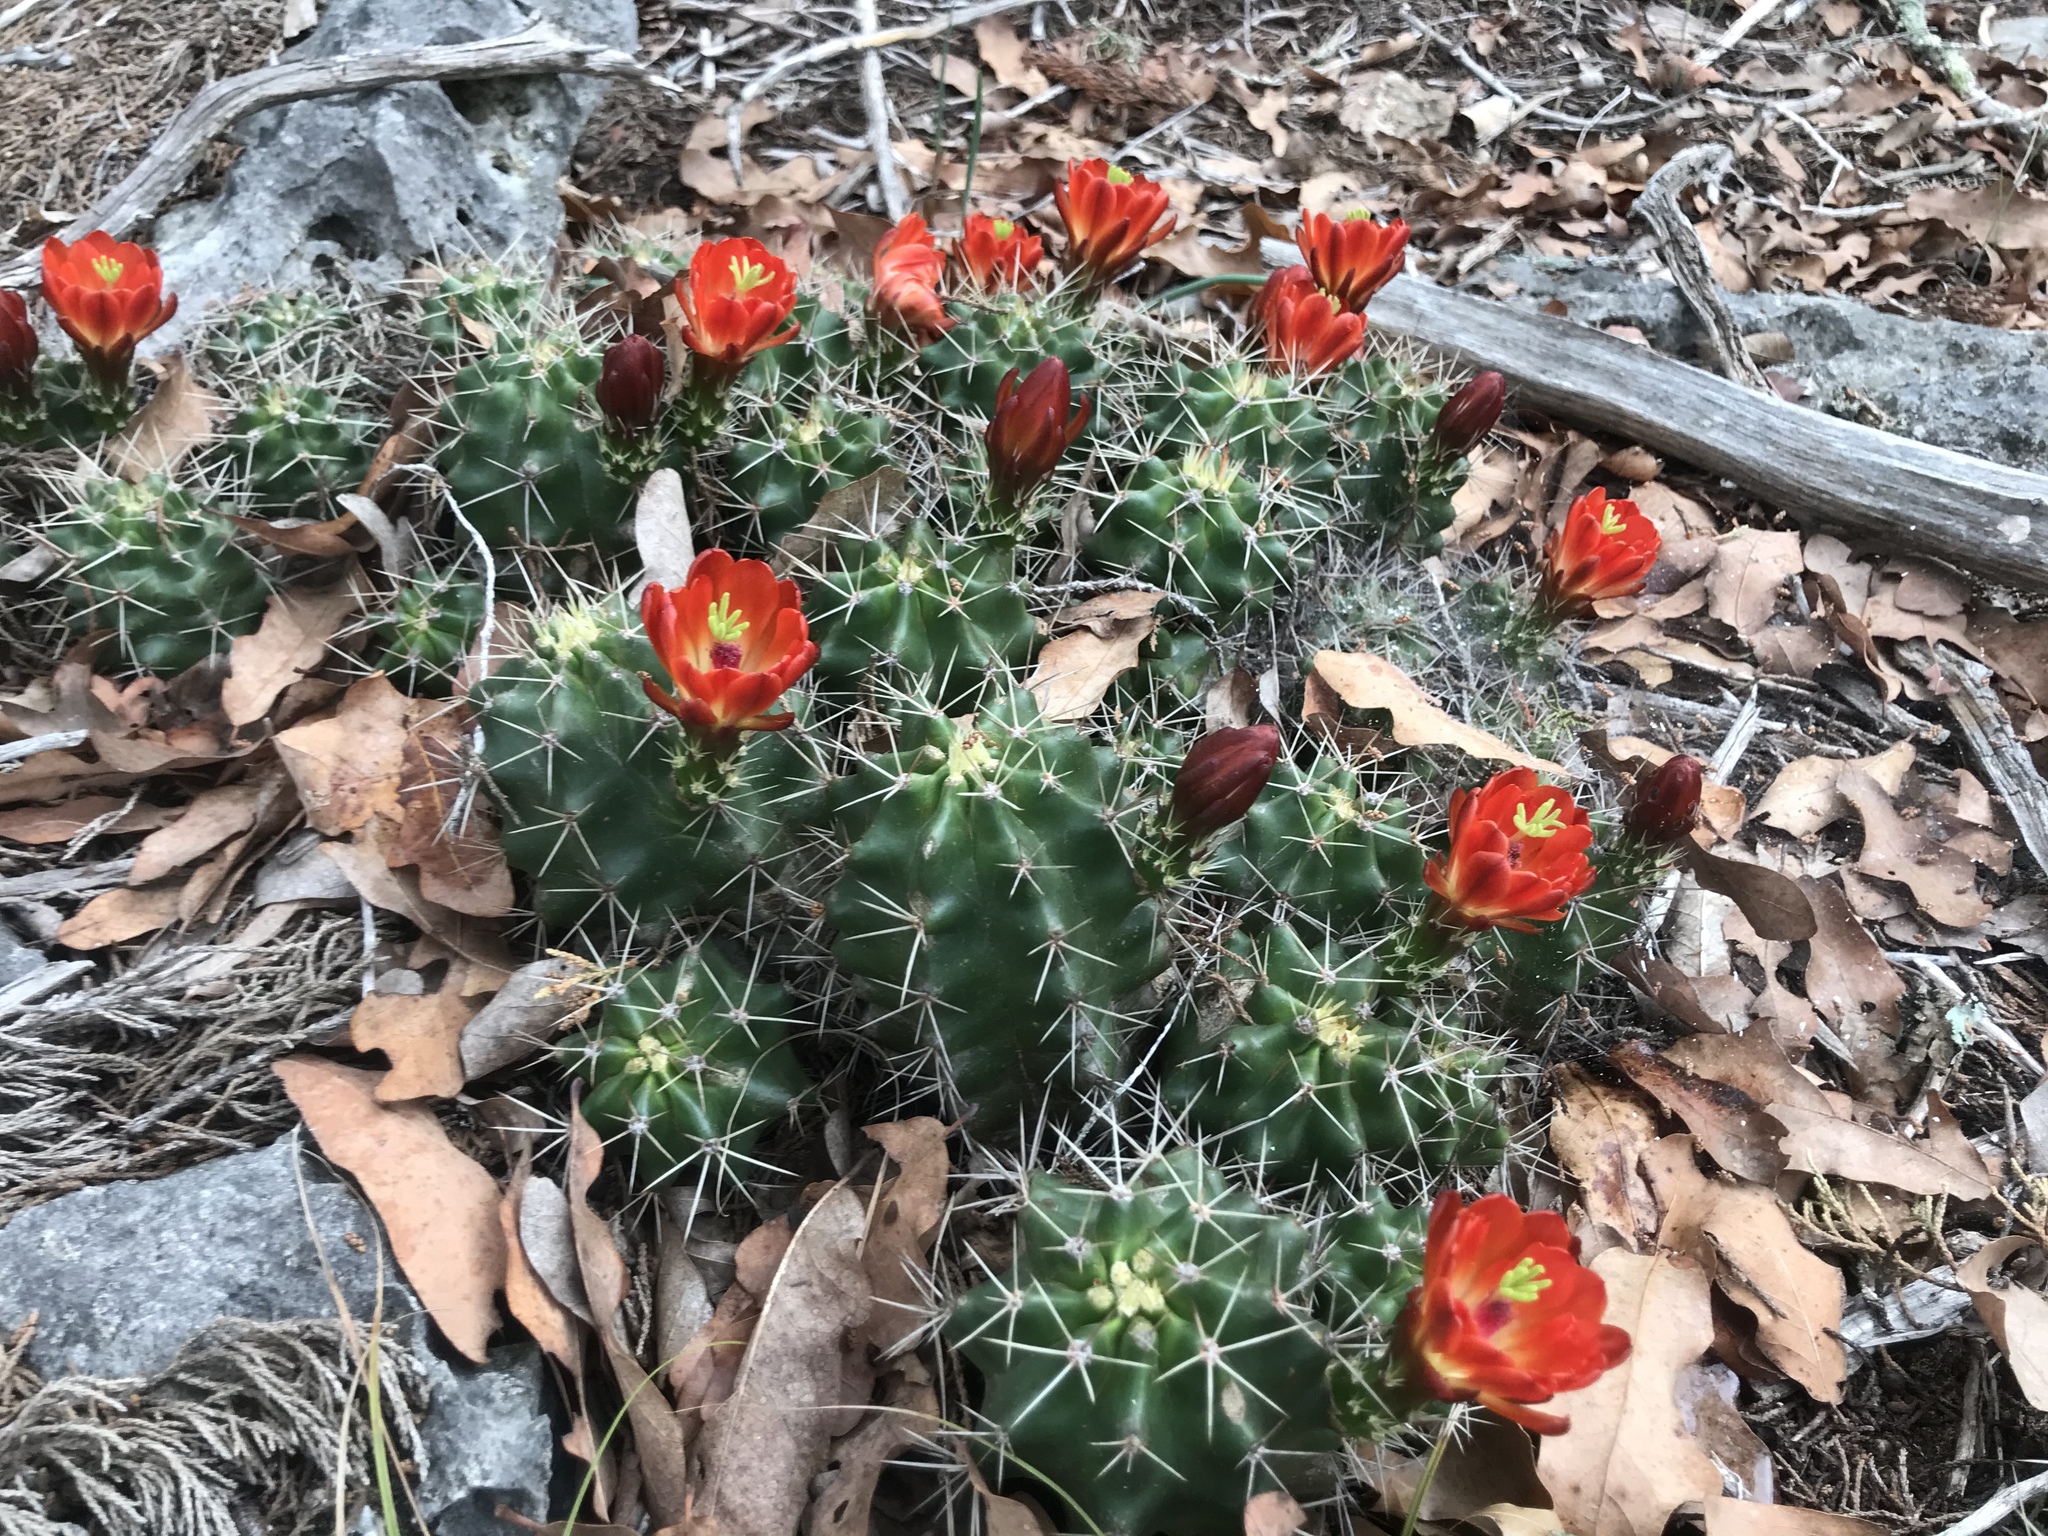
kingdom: Plantae
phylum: Tracheophyta
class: Magnoliopsida
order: Caryophyllales
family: Cactaceae
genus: Echinocereus
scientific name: Echinocereus coccineus
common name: Scarlet hedgehog cactus
